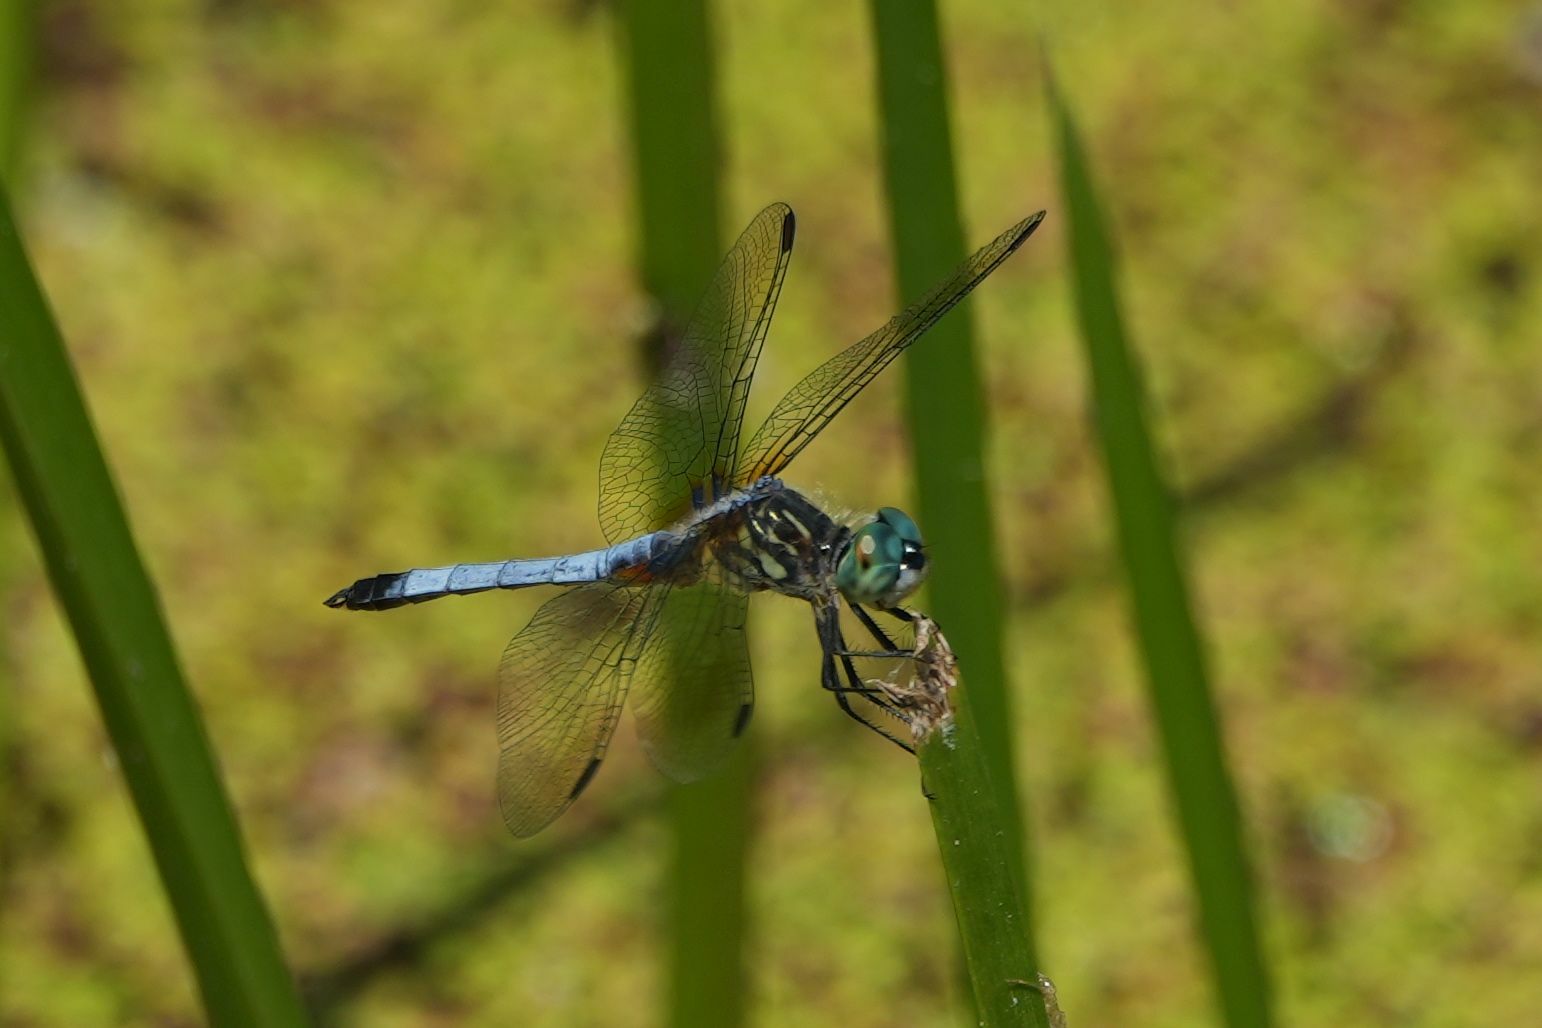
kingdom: Animalia
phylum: Arthropoda
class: Insecta
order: Odonata
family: Libellulidae
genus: Pachydiplax
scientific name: Pachydiplax longipennis
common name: Blue dasher
